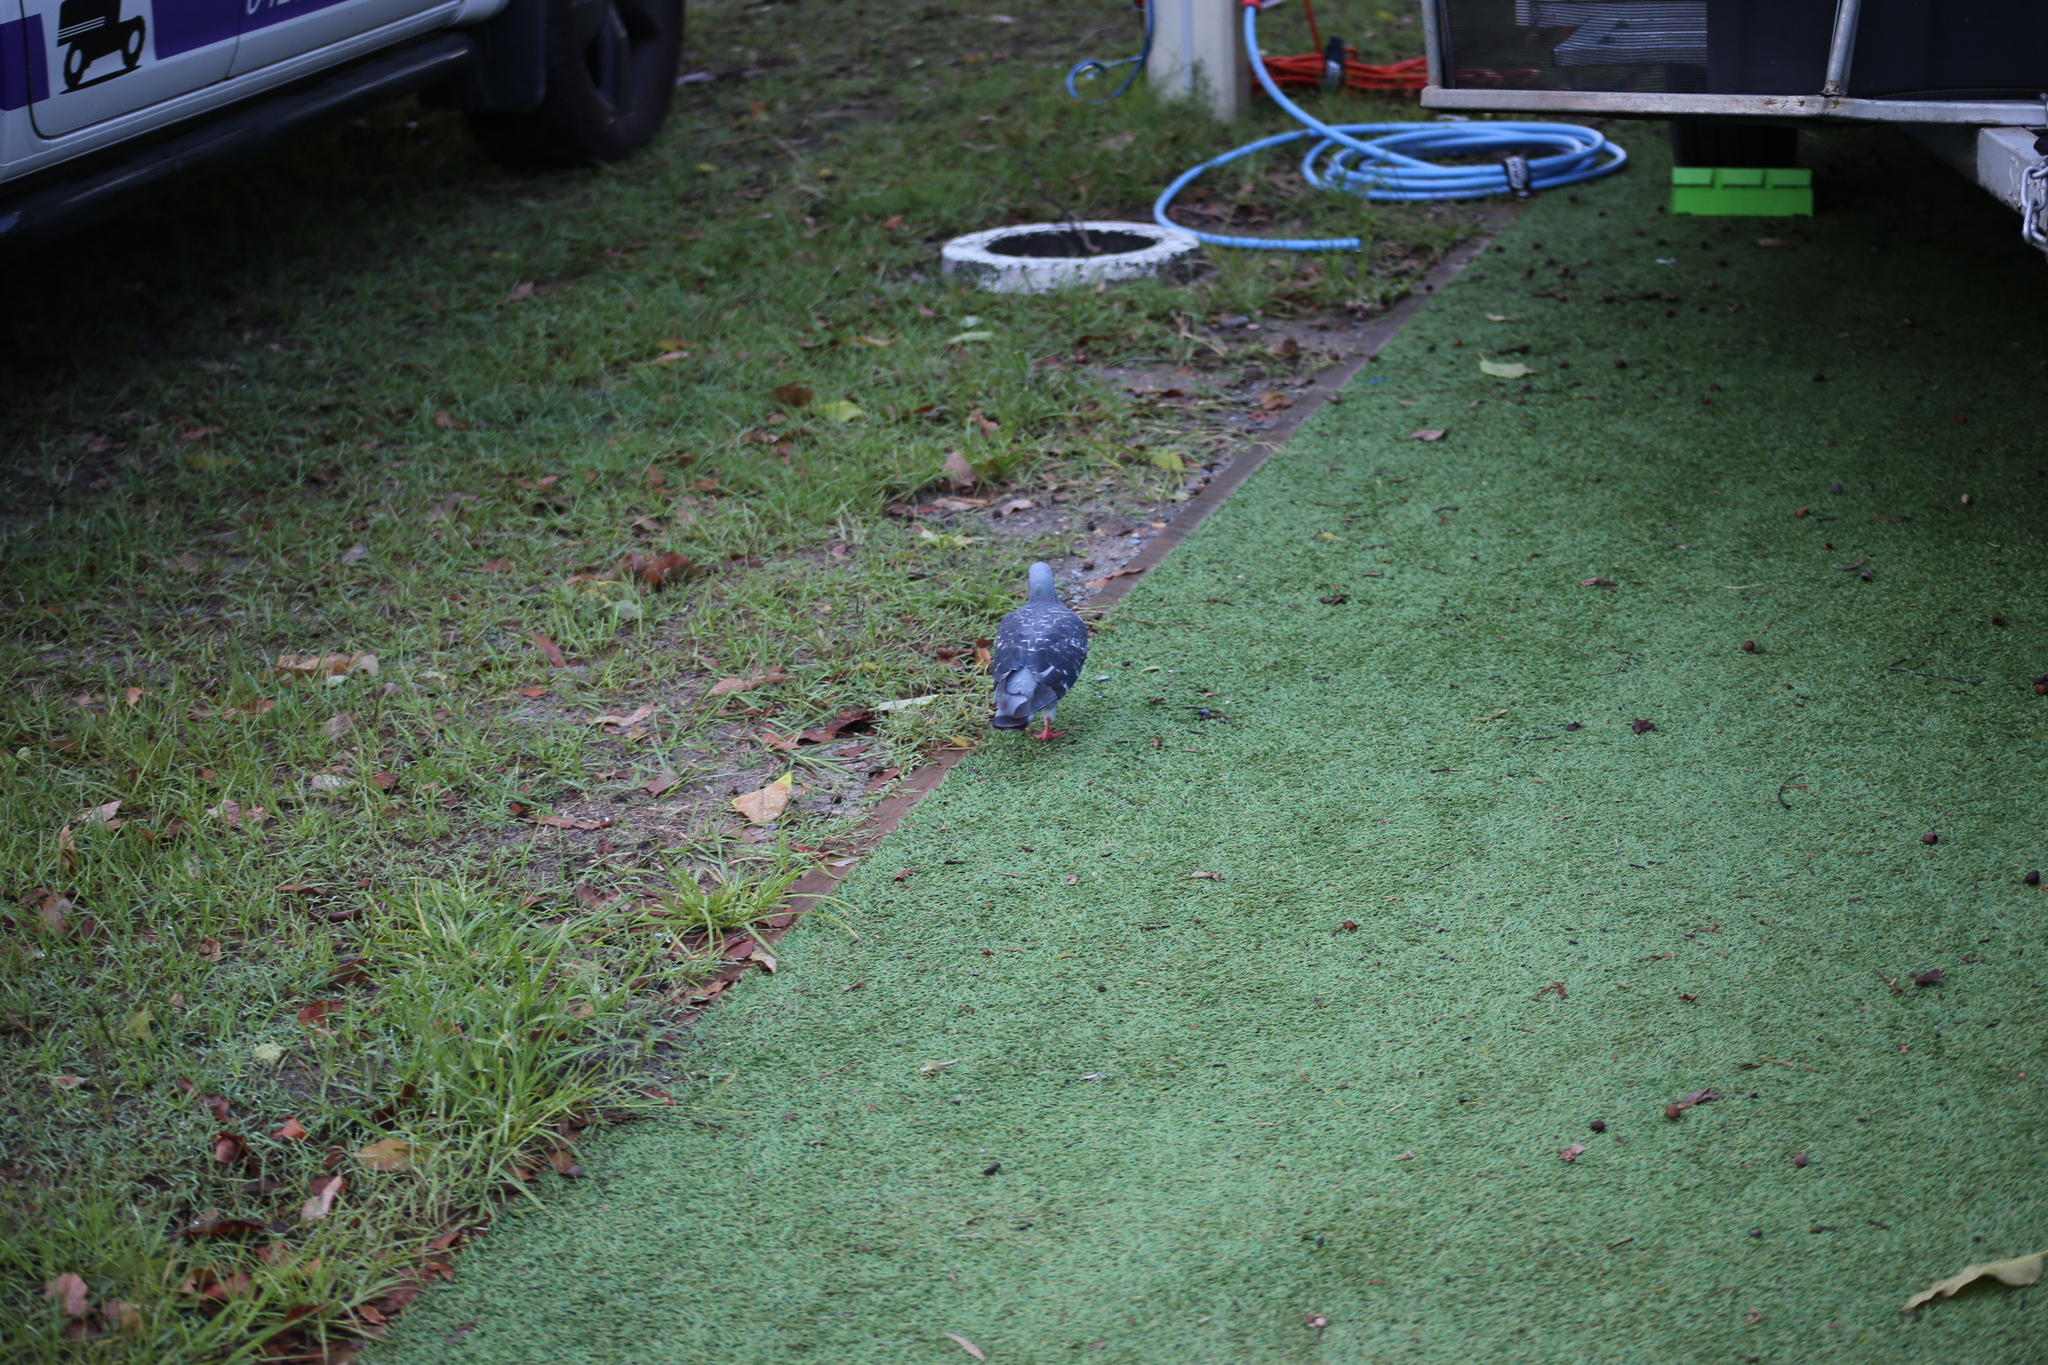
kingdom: Animalia
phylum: Chordata
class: Aves
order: Columbiformes
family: Columbidae
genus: Columba
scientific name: Columba livia
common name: Rock pigeon
